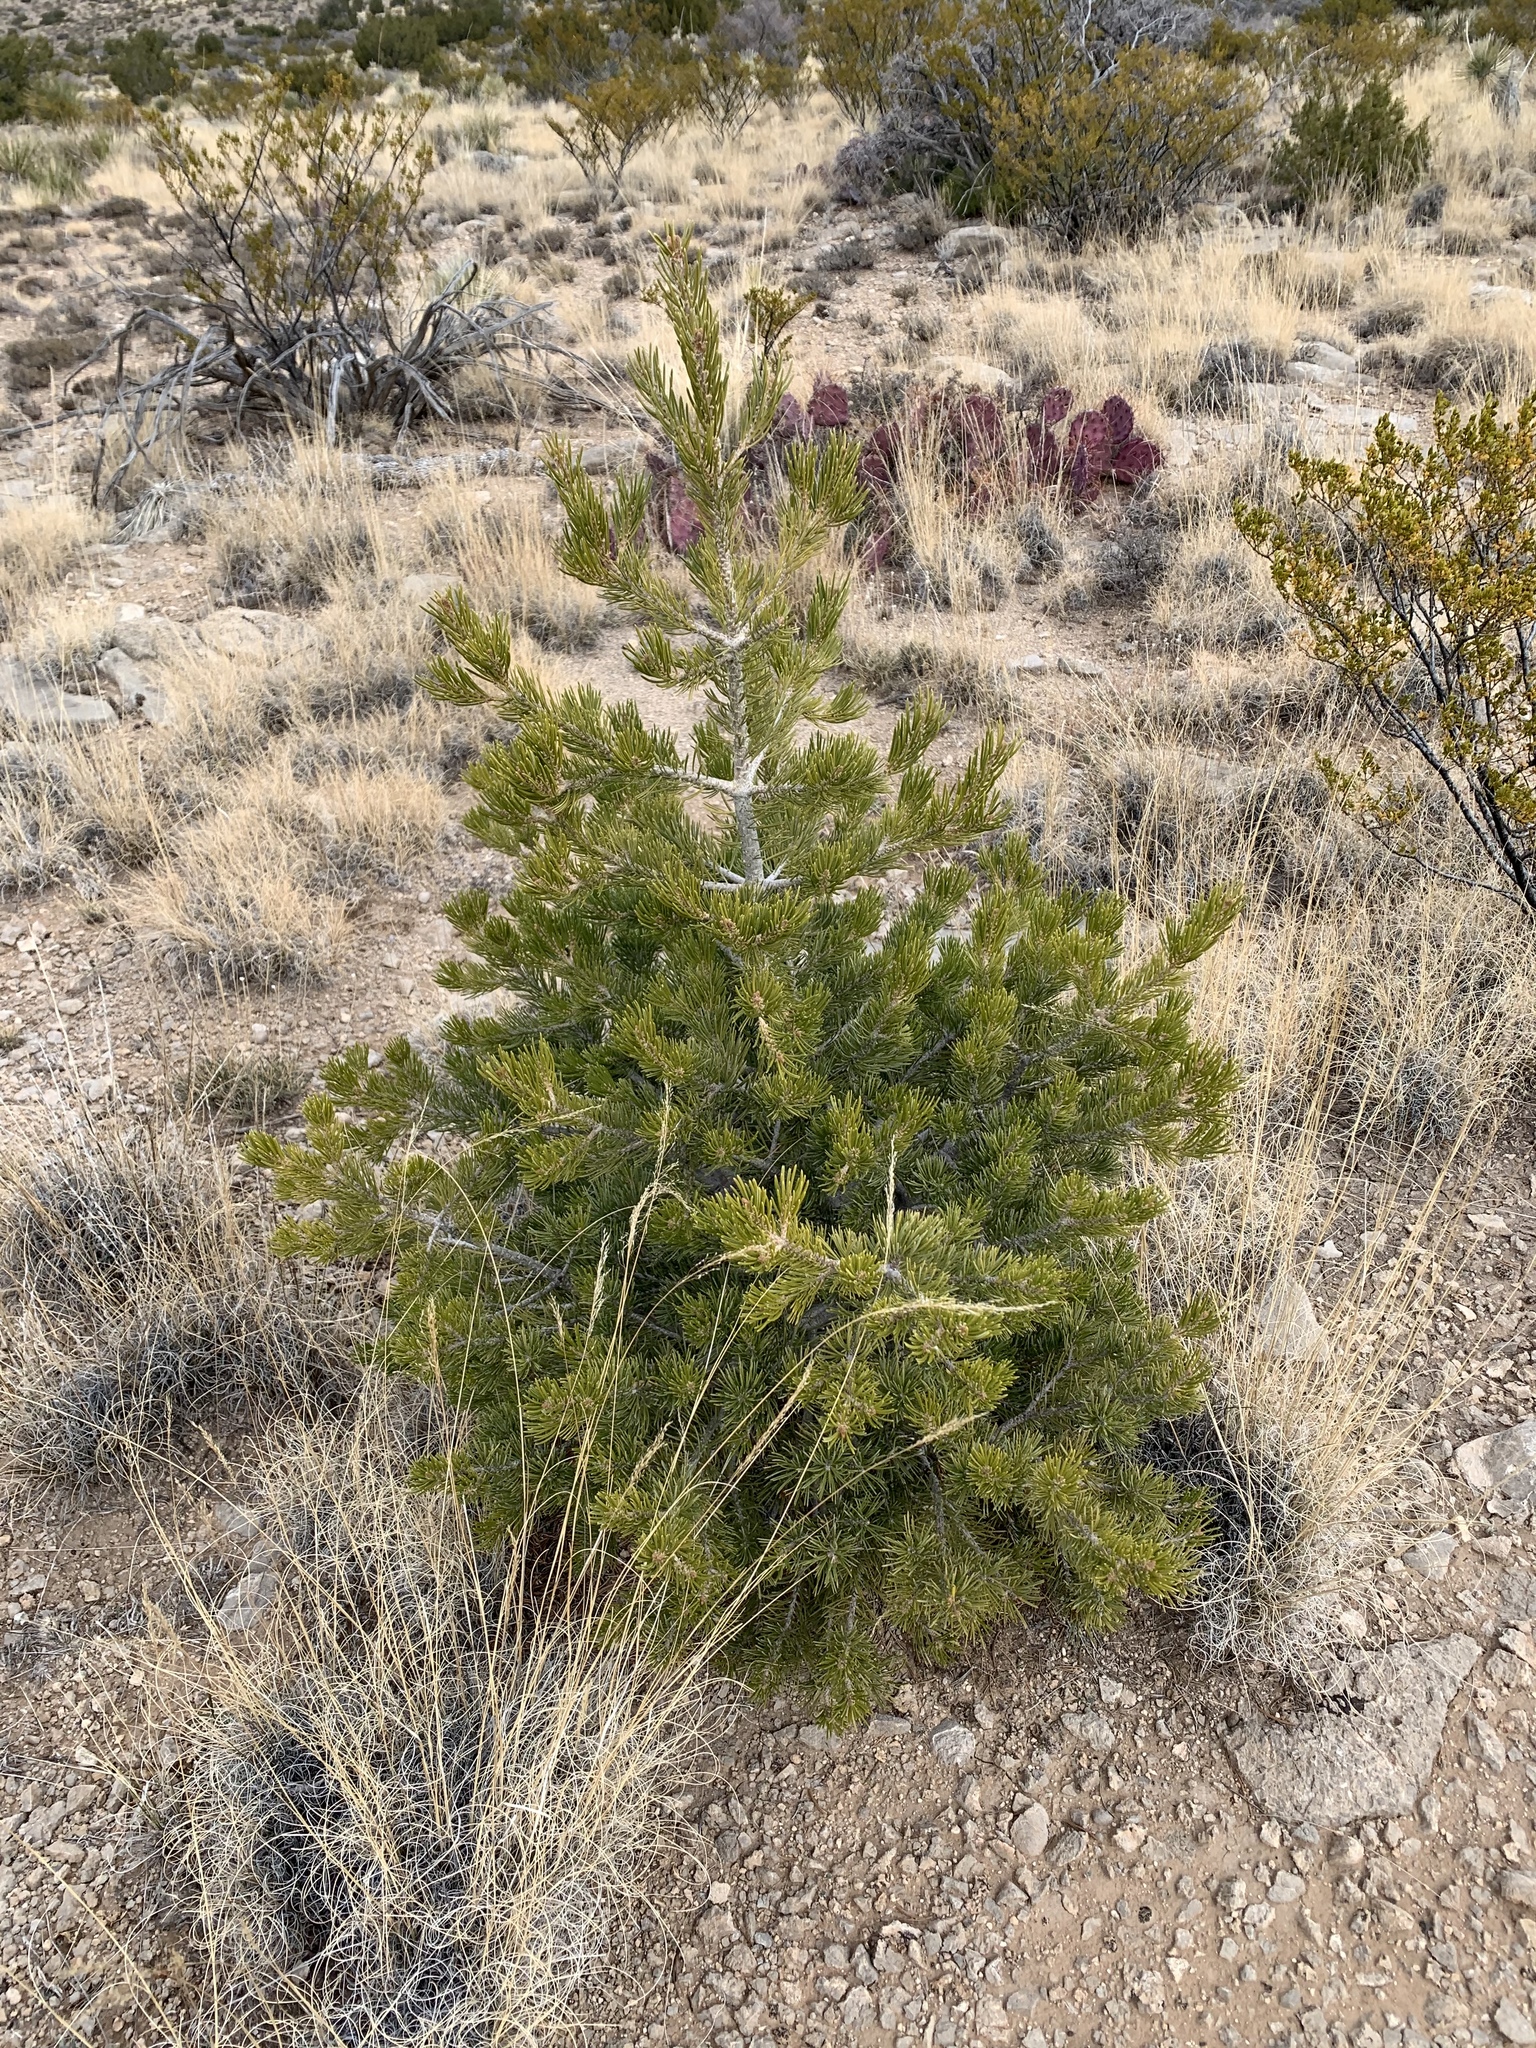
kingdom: Plantae
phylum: Tracheophyta
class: Pinopsida
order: Pinales
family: Pinaceae
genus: Pinus
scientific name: Pinus edulis
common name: Colorado pinyon
